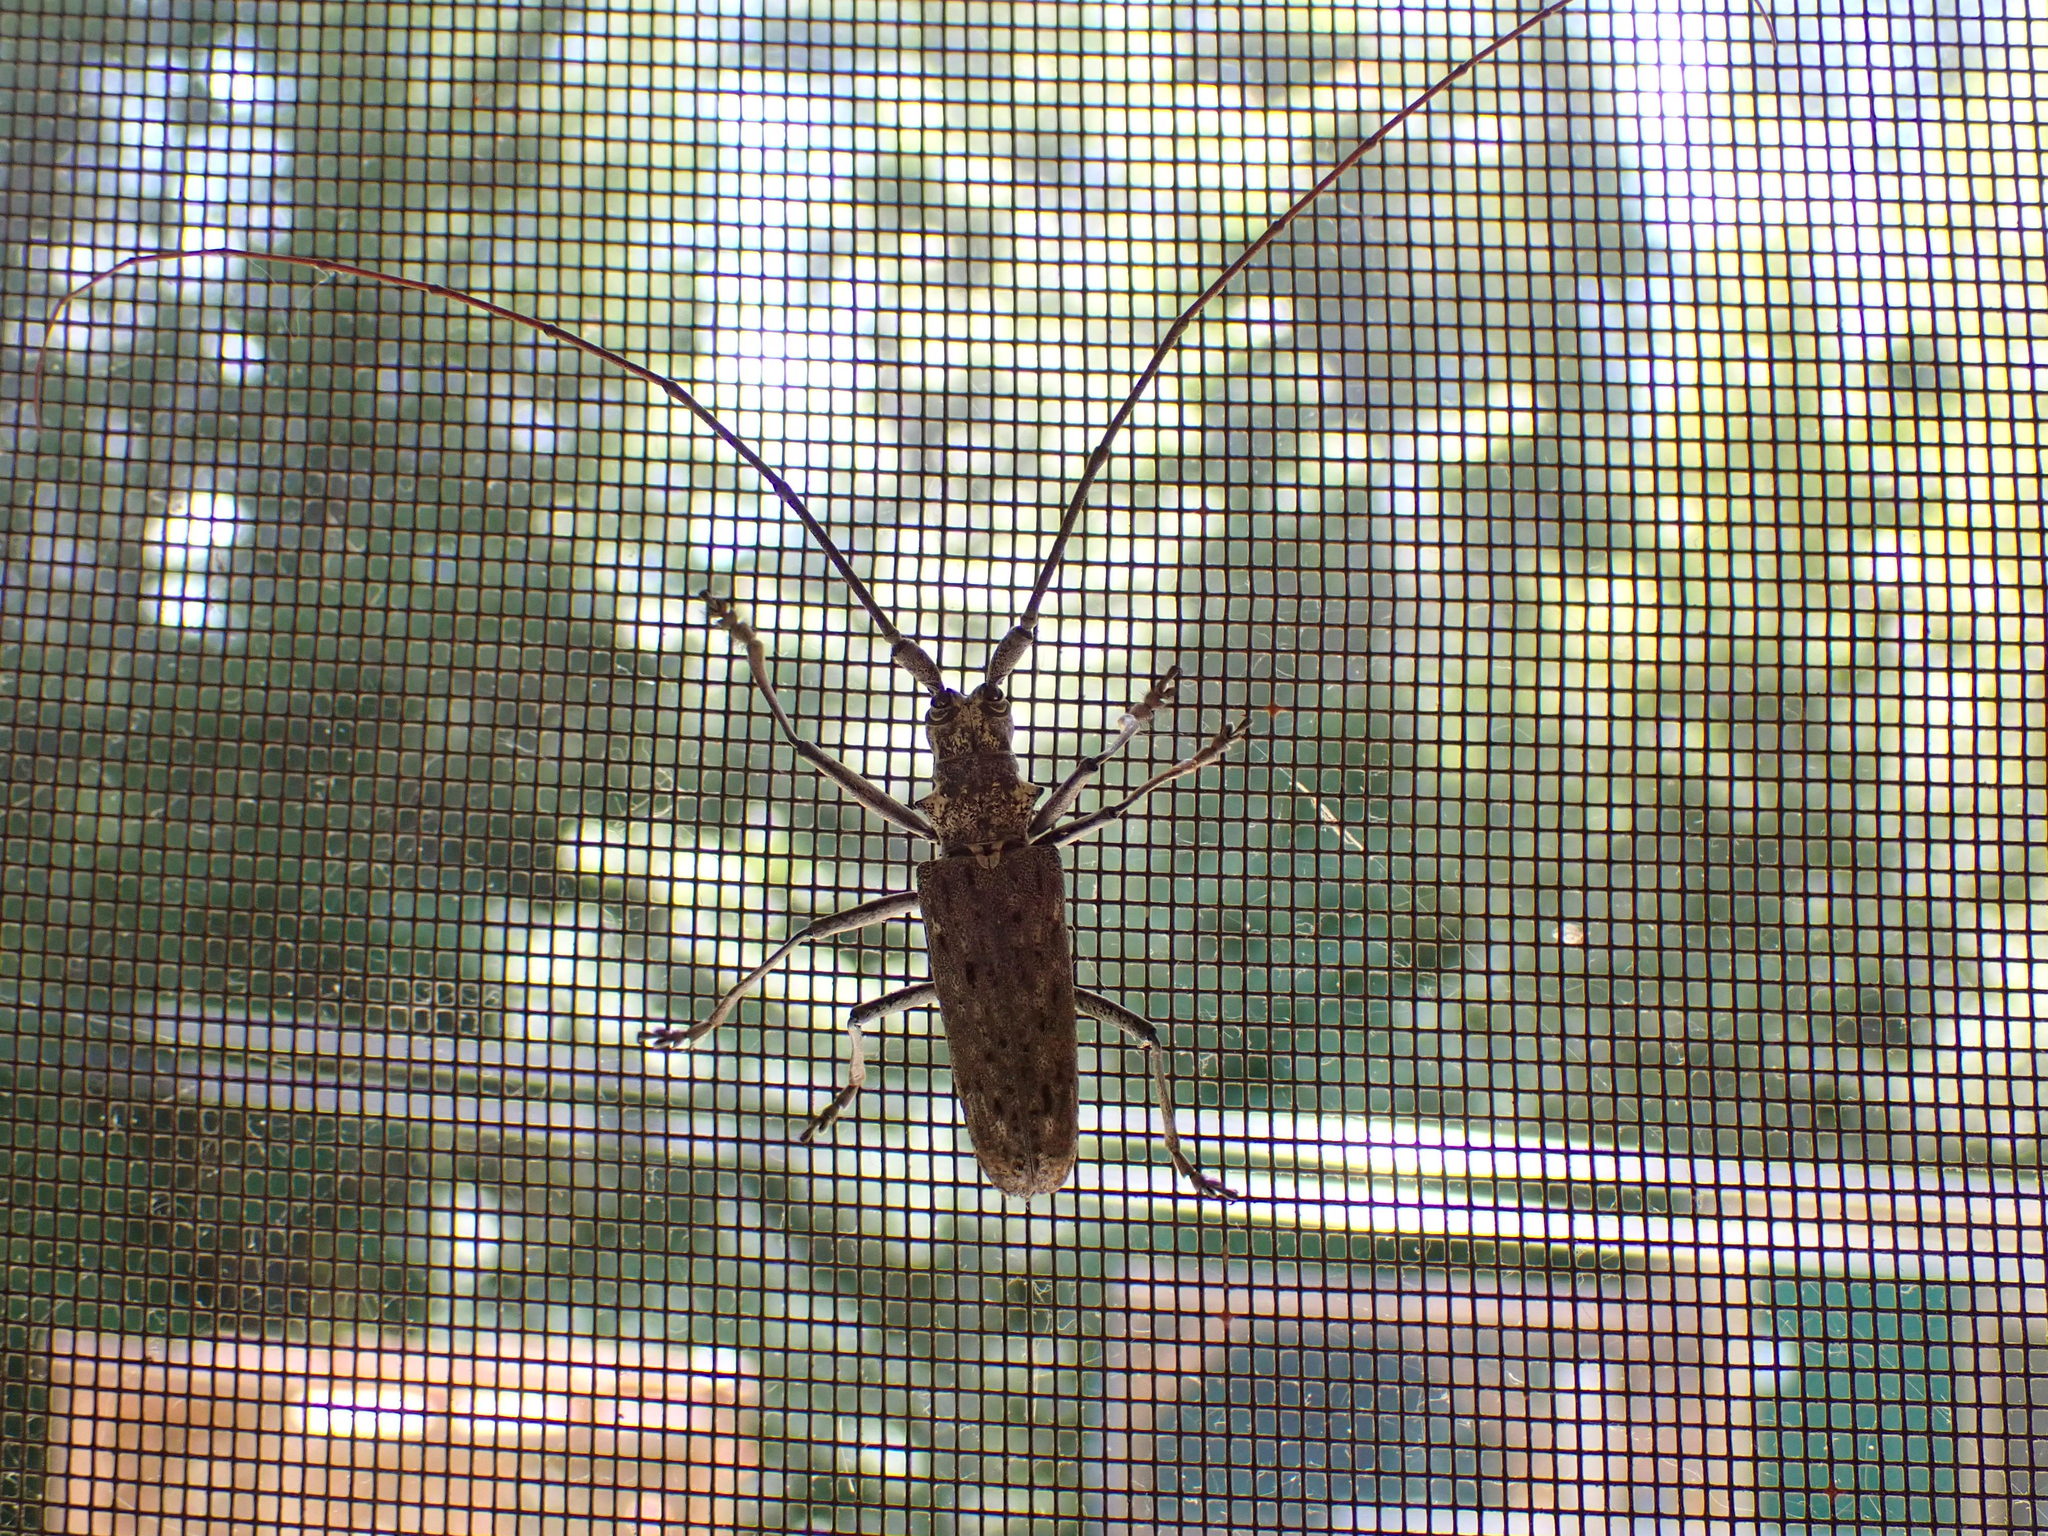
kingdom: Animalia
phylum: Arthropoda
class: Insecta
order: Coleoptera
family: Cerambycidae
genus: Monochamus
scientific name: Monochamus notatus
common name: Northeastern pine sawyer beetle
